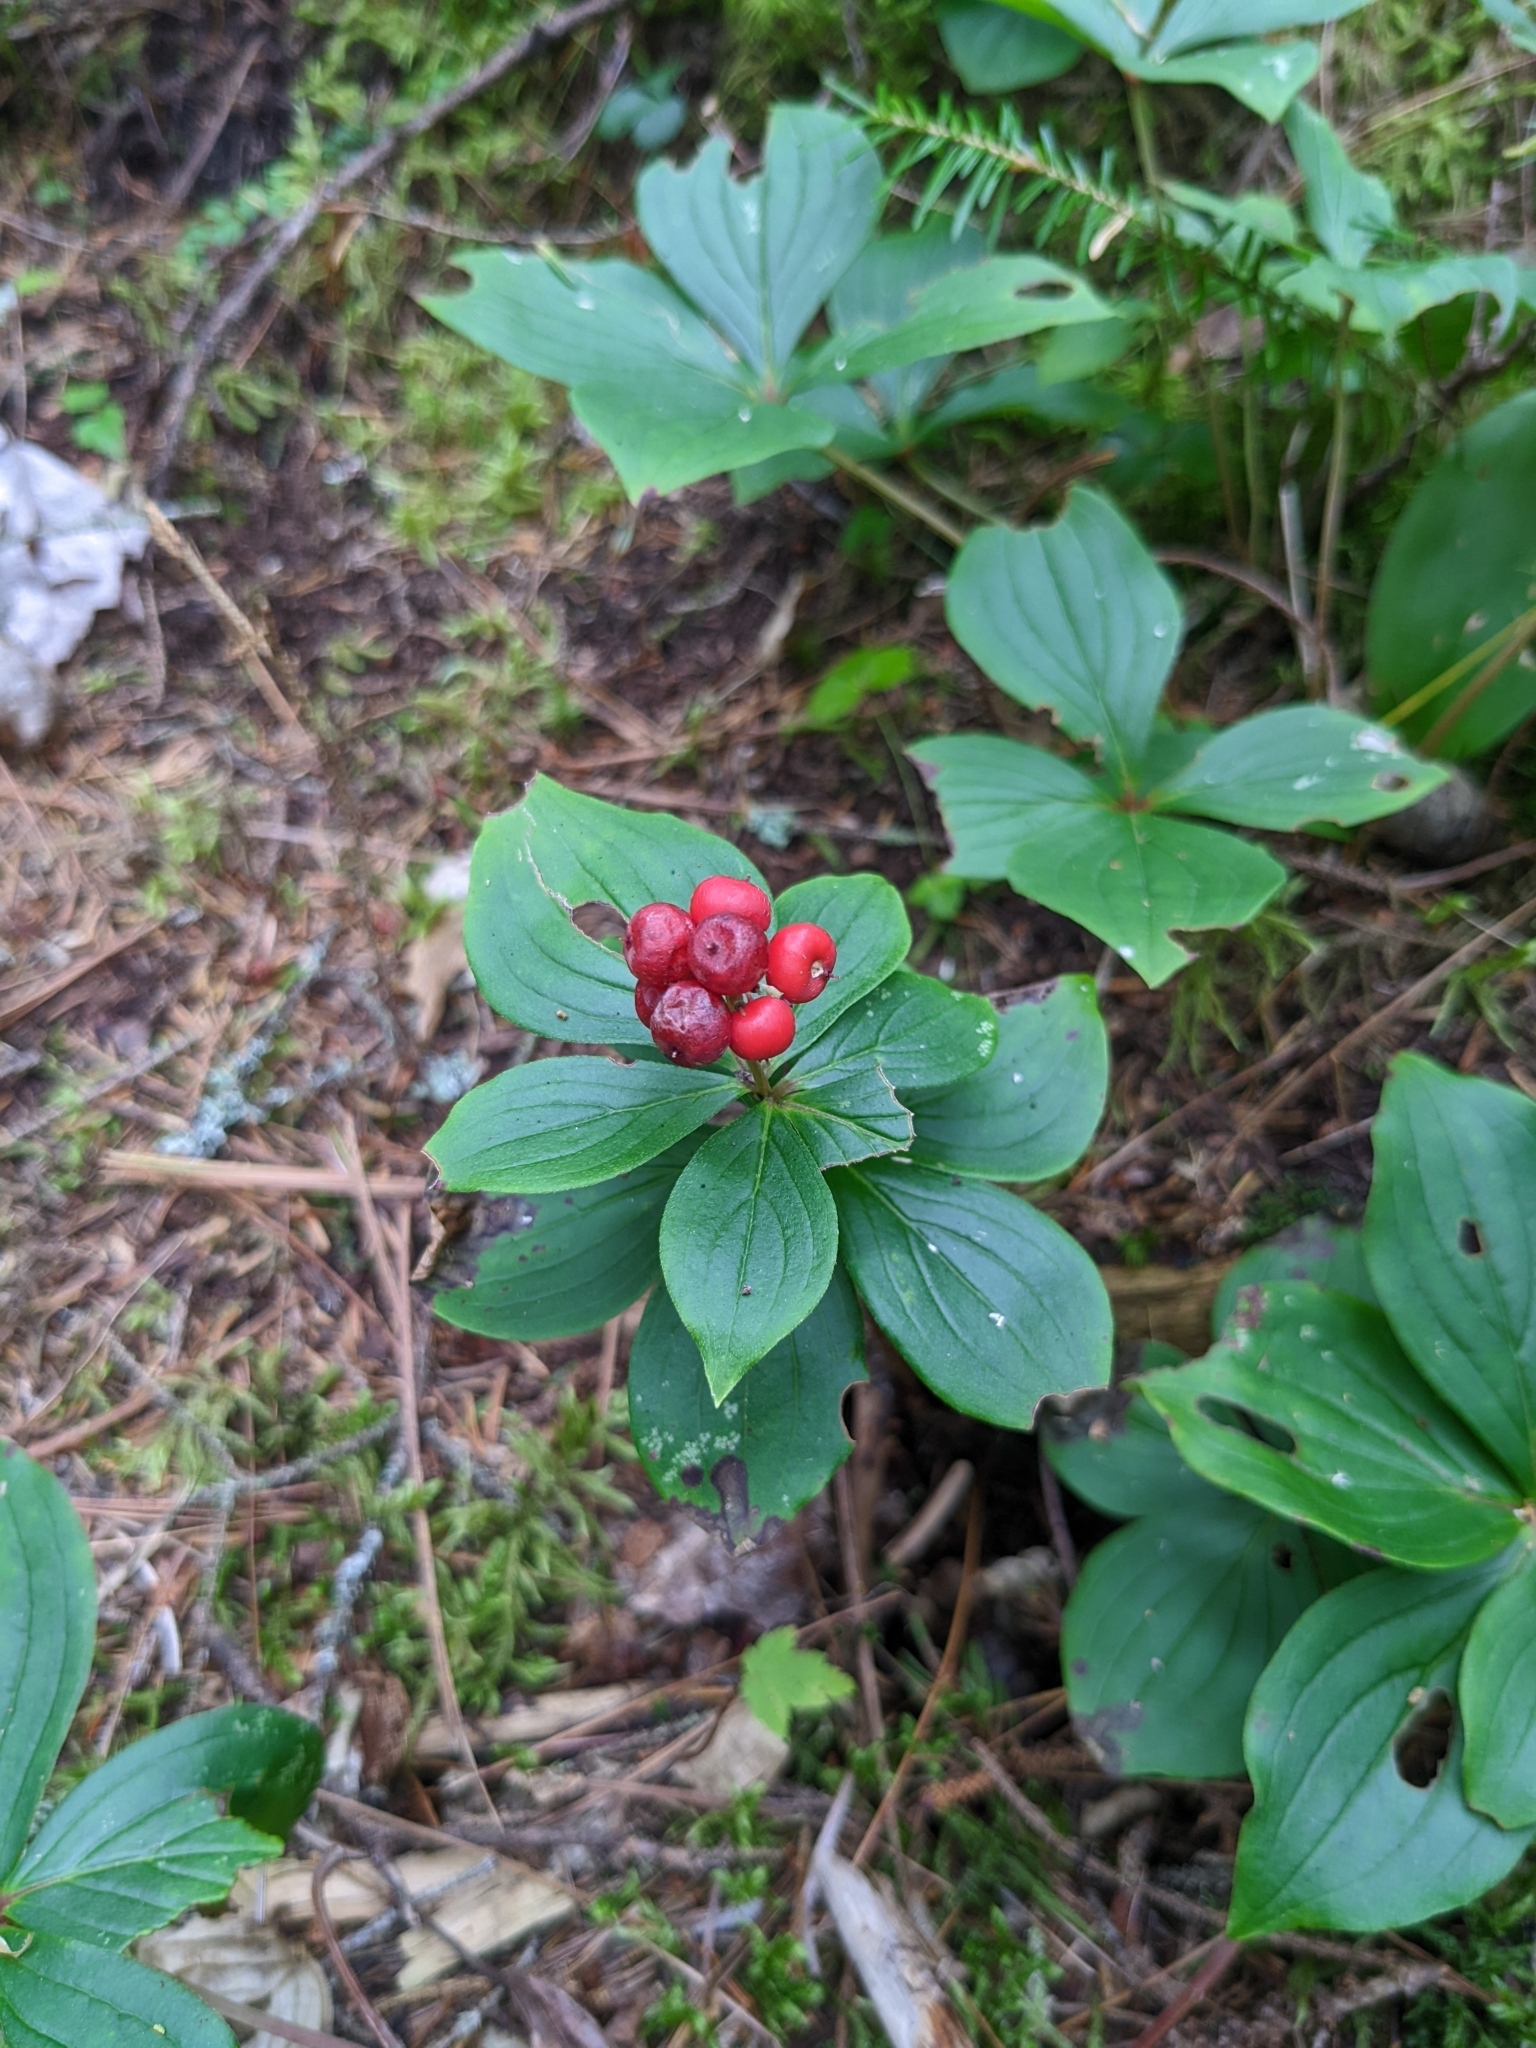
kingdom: Plantae
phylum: Tracheophyta
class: Magnoliopsida
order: Cornales
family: Cornaceae
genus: Cornus
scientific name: Cornus canadensis
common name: Creeping dogwood
